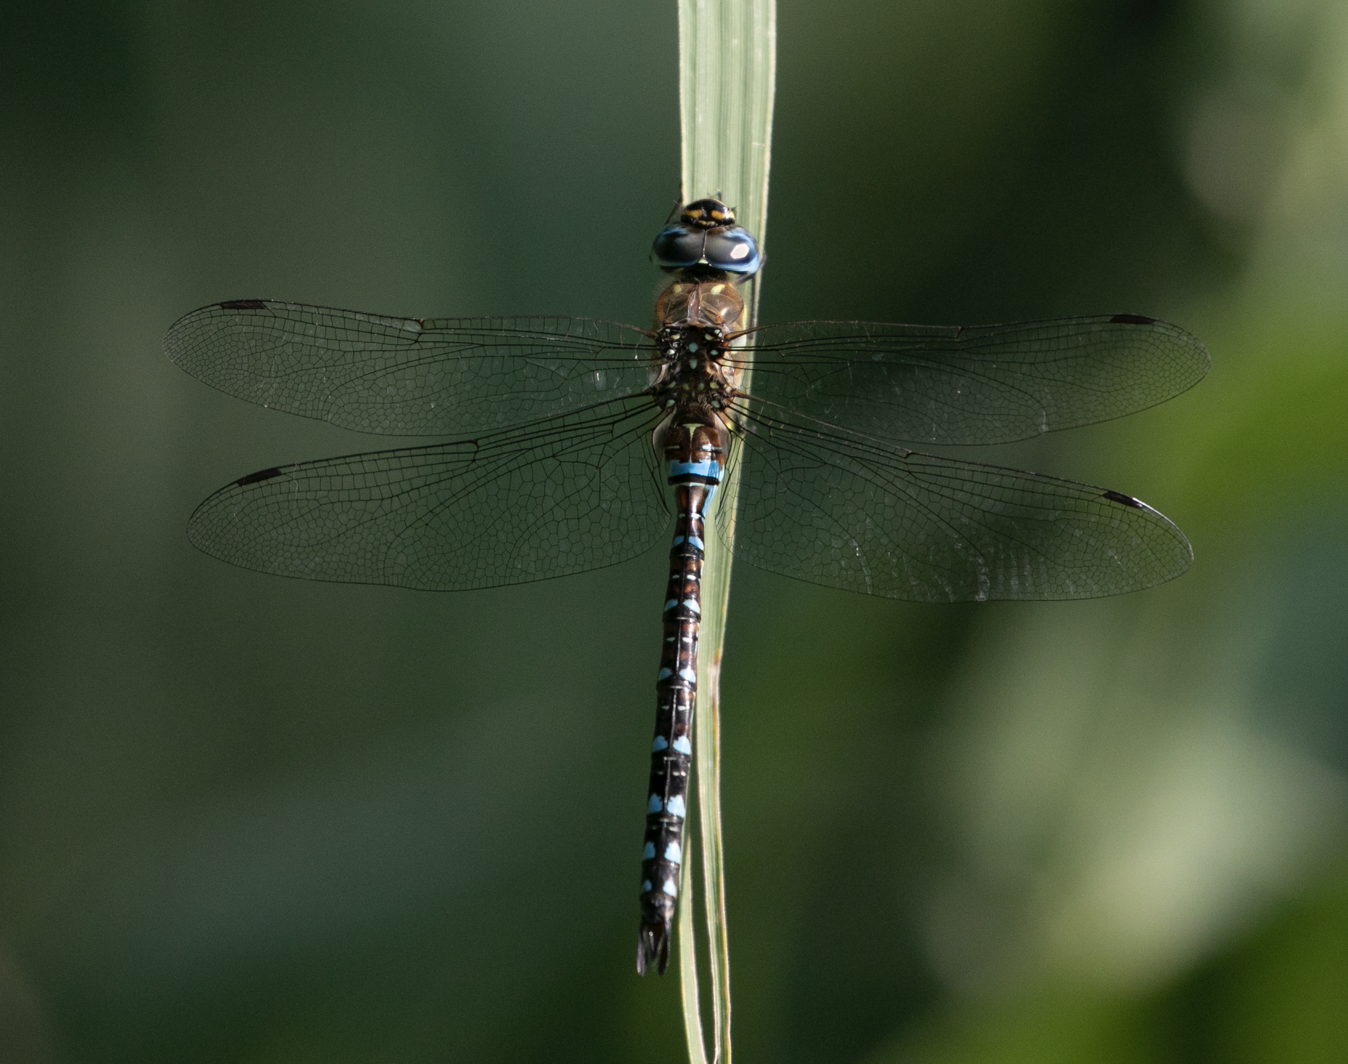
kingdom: Animalia
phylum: Arthropoda
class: Insecta
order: Odonata
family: Aeshnidae
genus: Aeshna
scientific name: Aeshna mixta
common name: Migrant hawker
